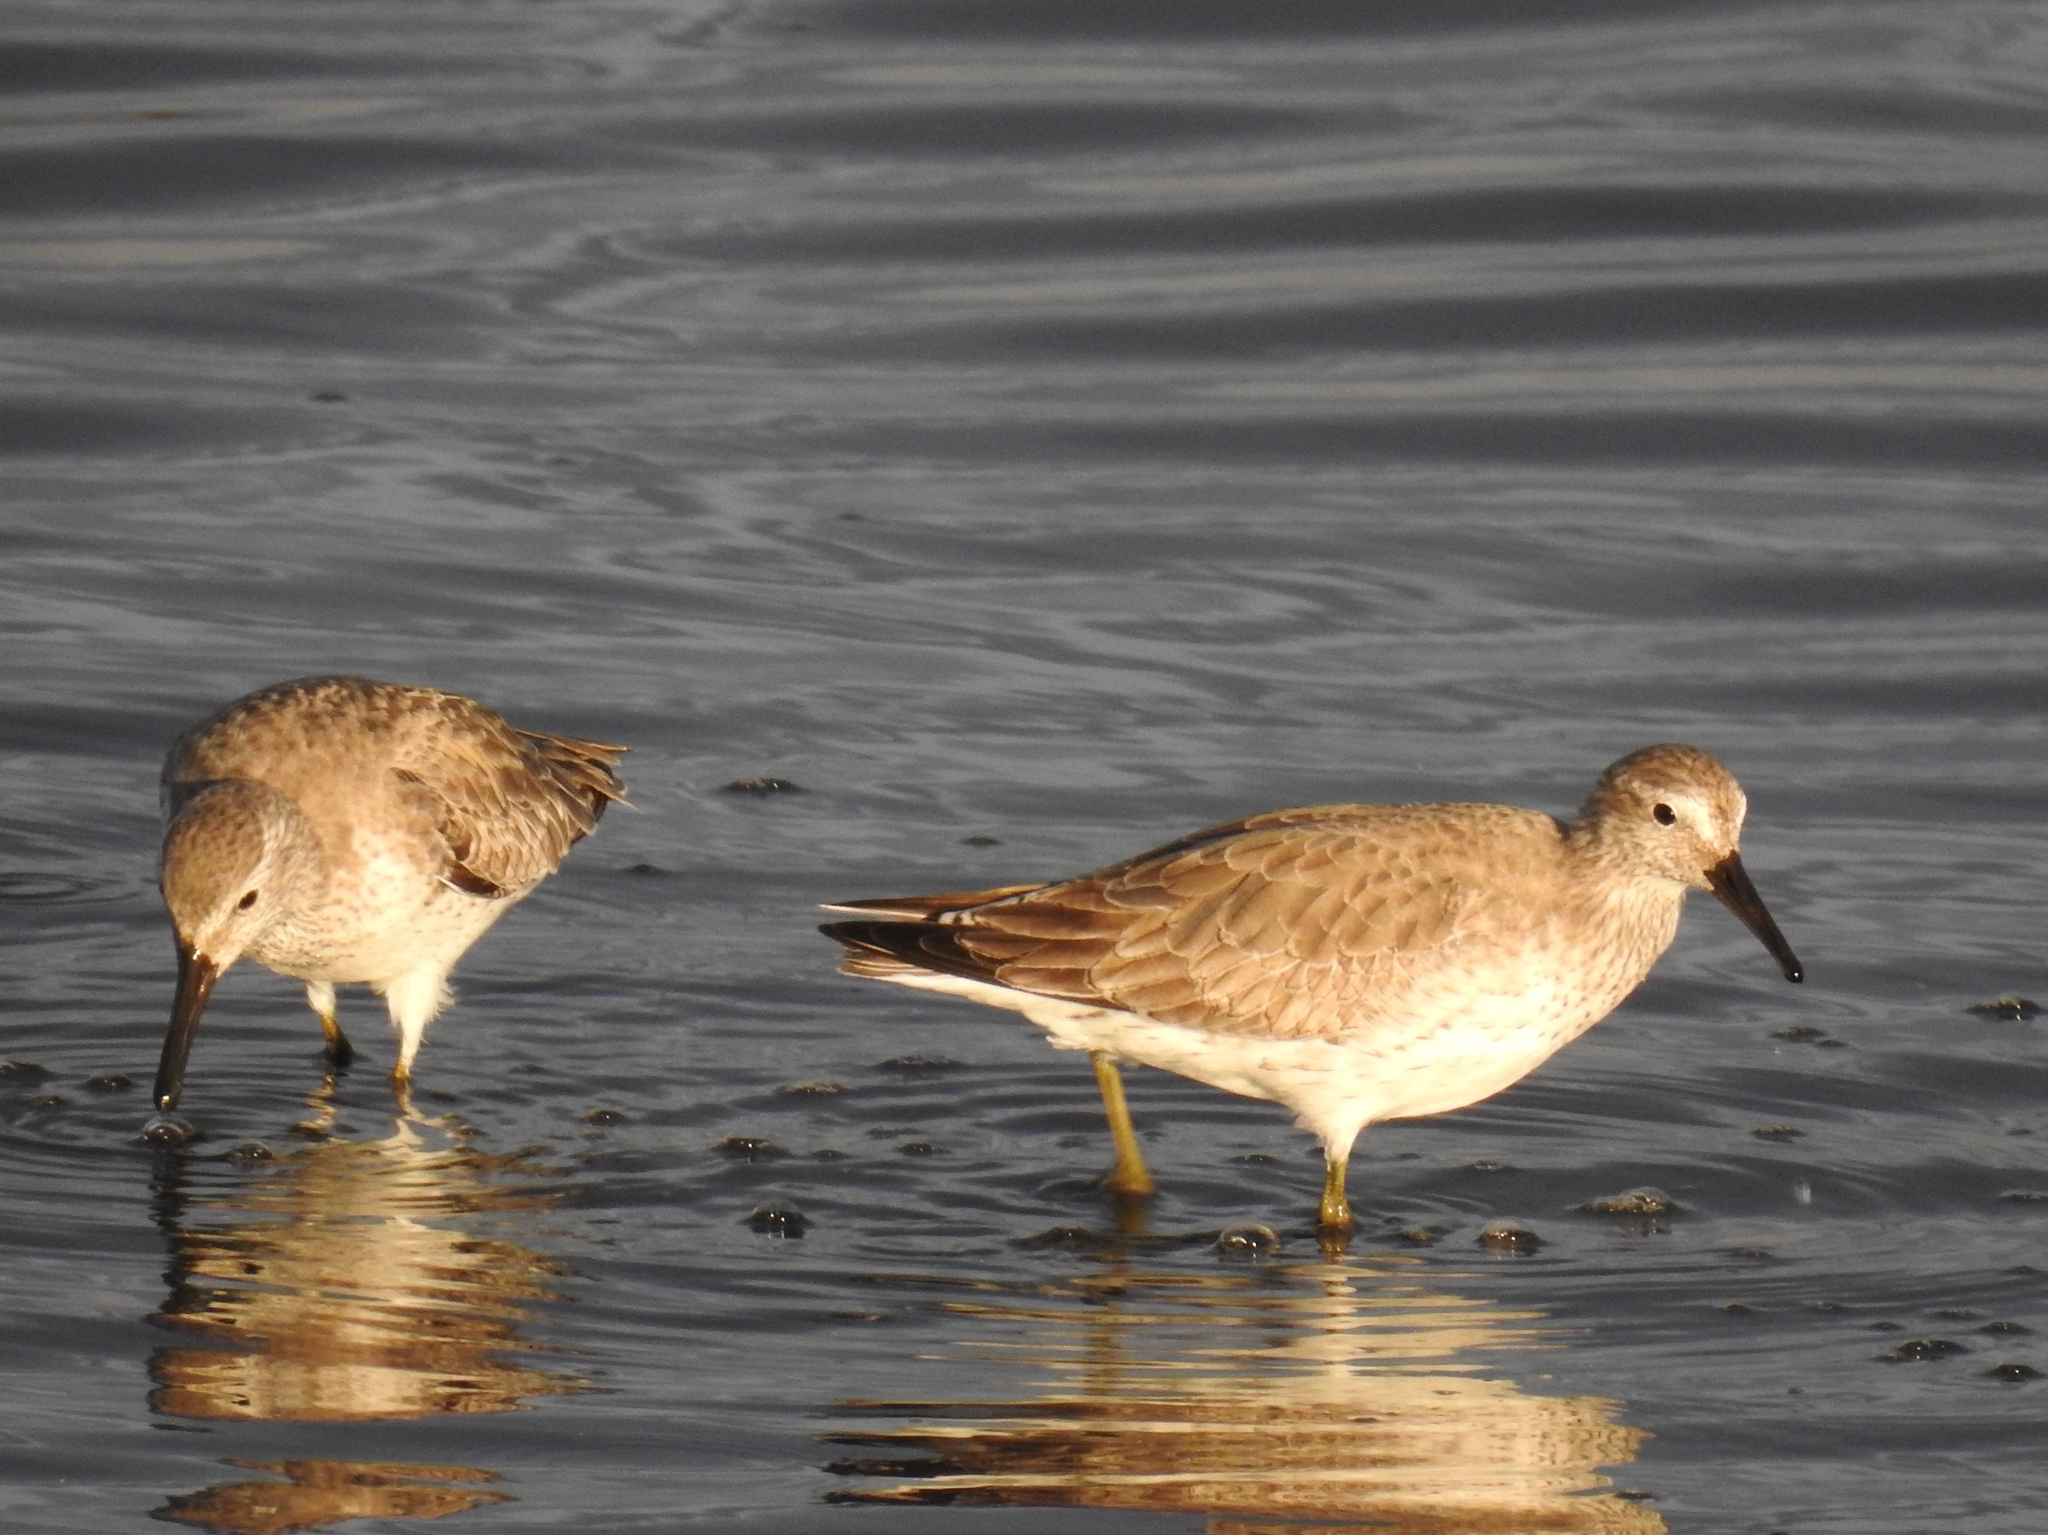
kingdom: Animalia
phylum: Chordata
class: Aves
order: Charadriiformes
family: Scolopacidae
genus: Calidris
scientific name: Calidris canutus
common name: Red knot
